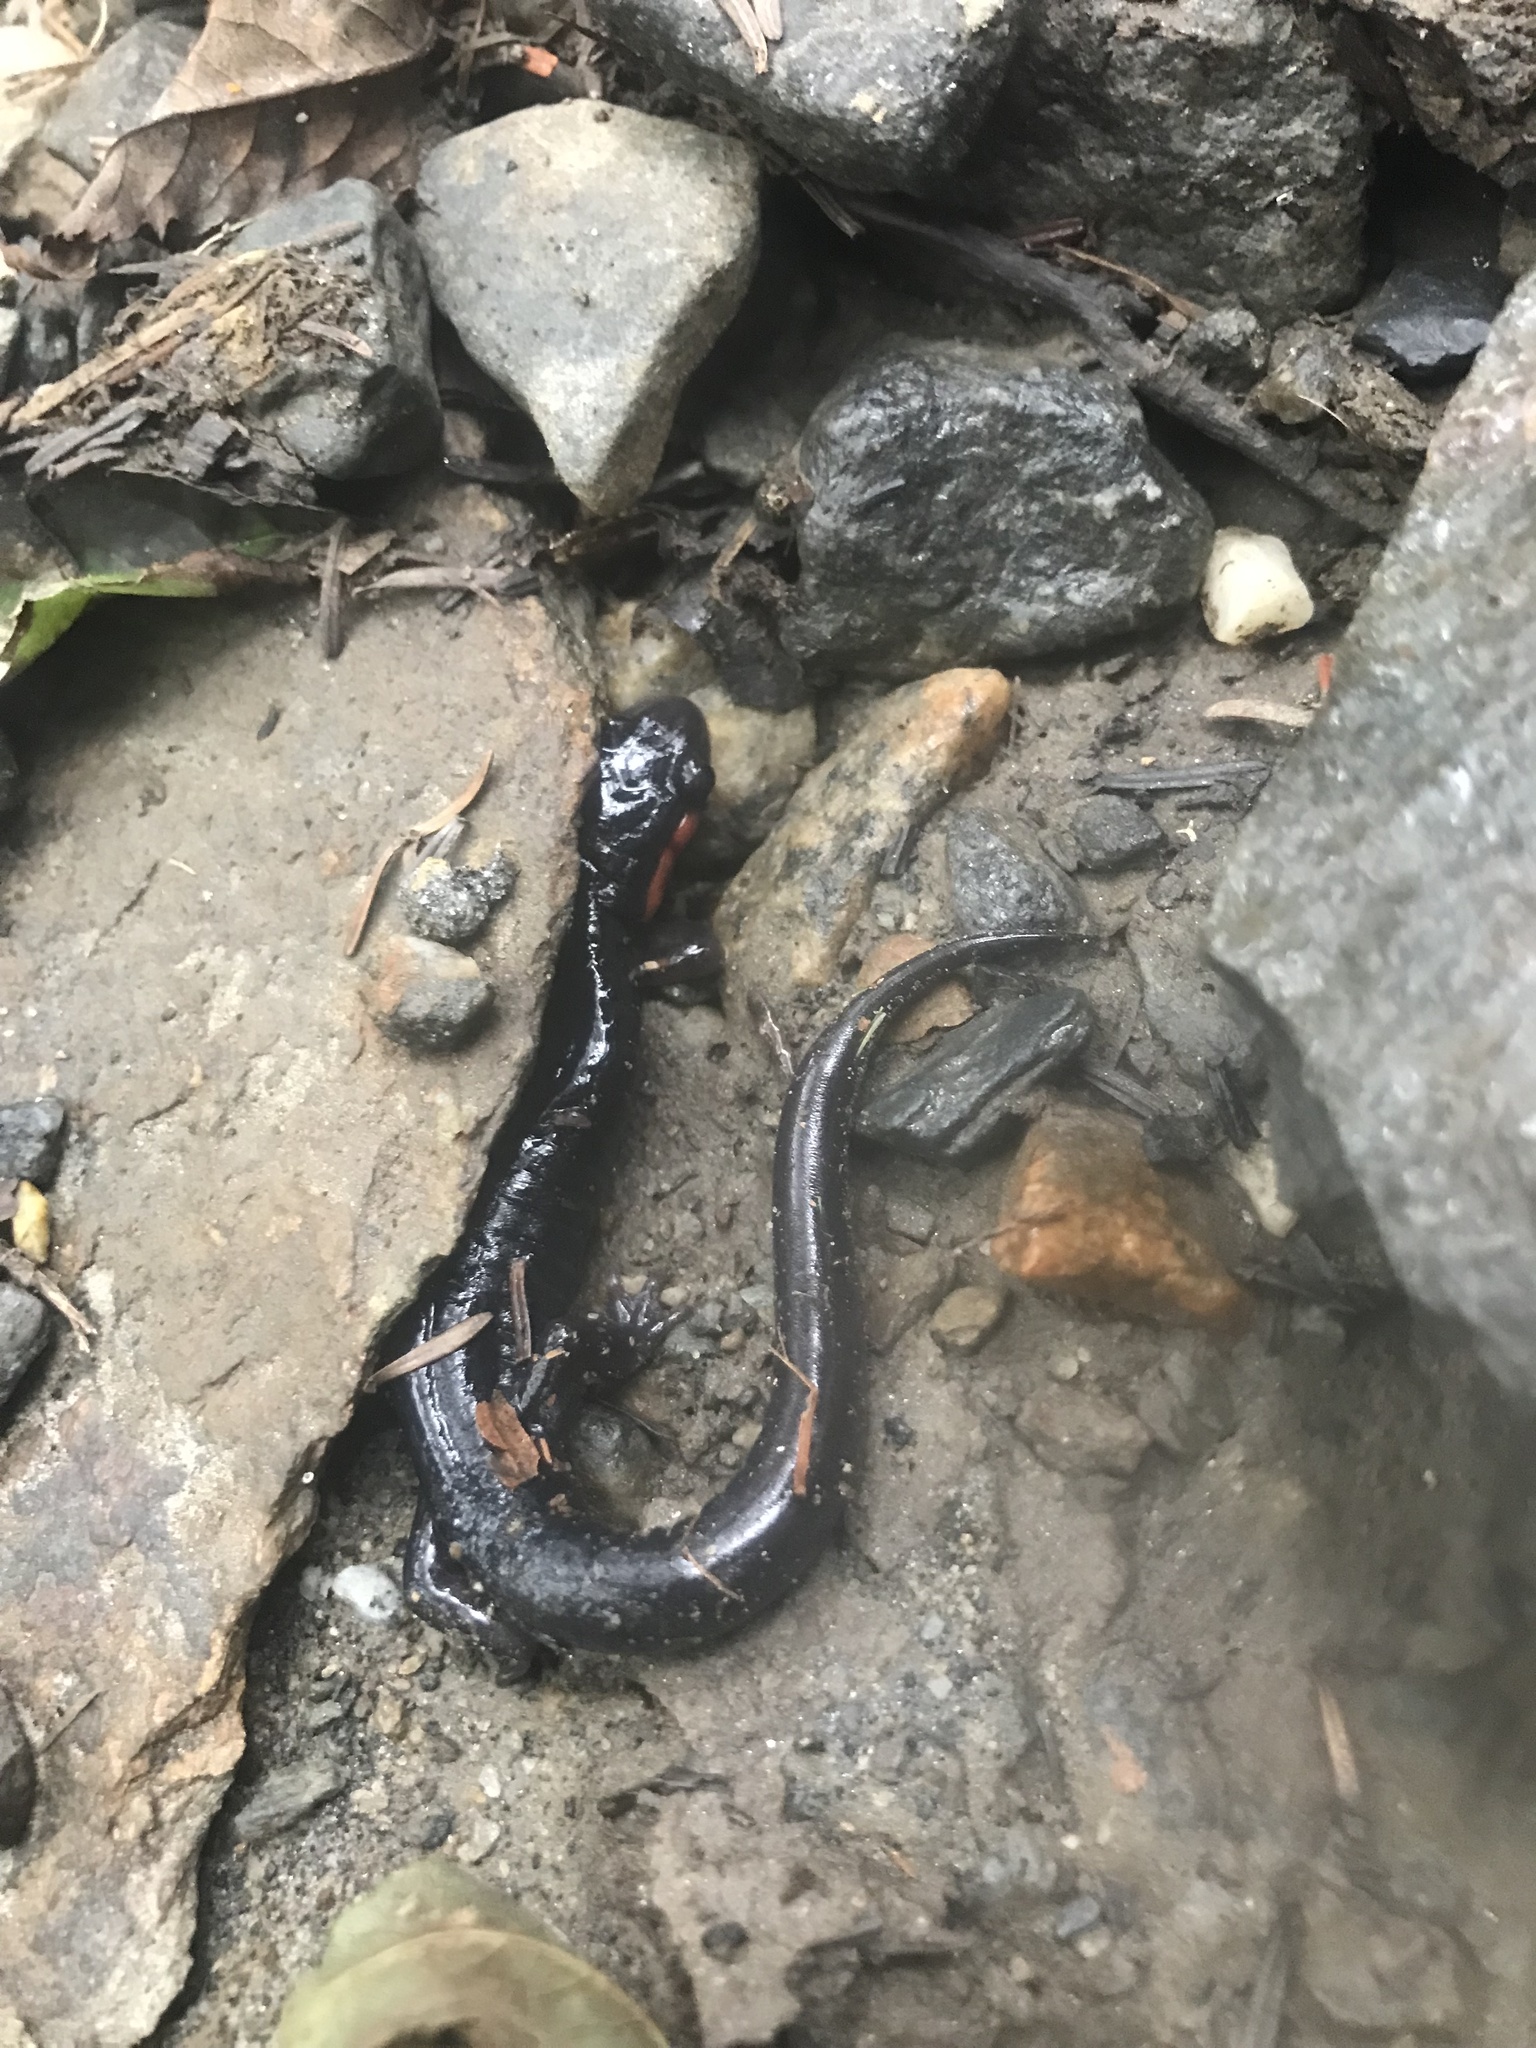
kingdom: Animalia
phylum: Chordata
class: Amphibia
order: Caudata
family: Plethodontidae
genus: Plethodon
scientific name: Plethodon jordani
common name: Red-cheeked salamander
